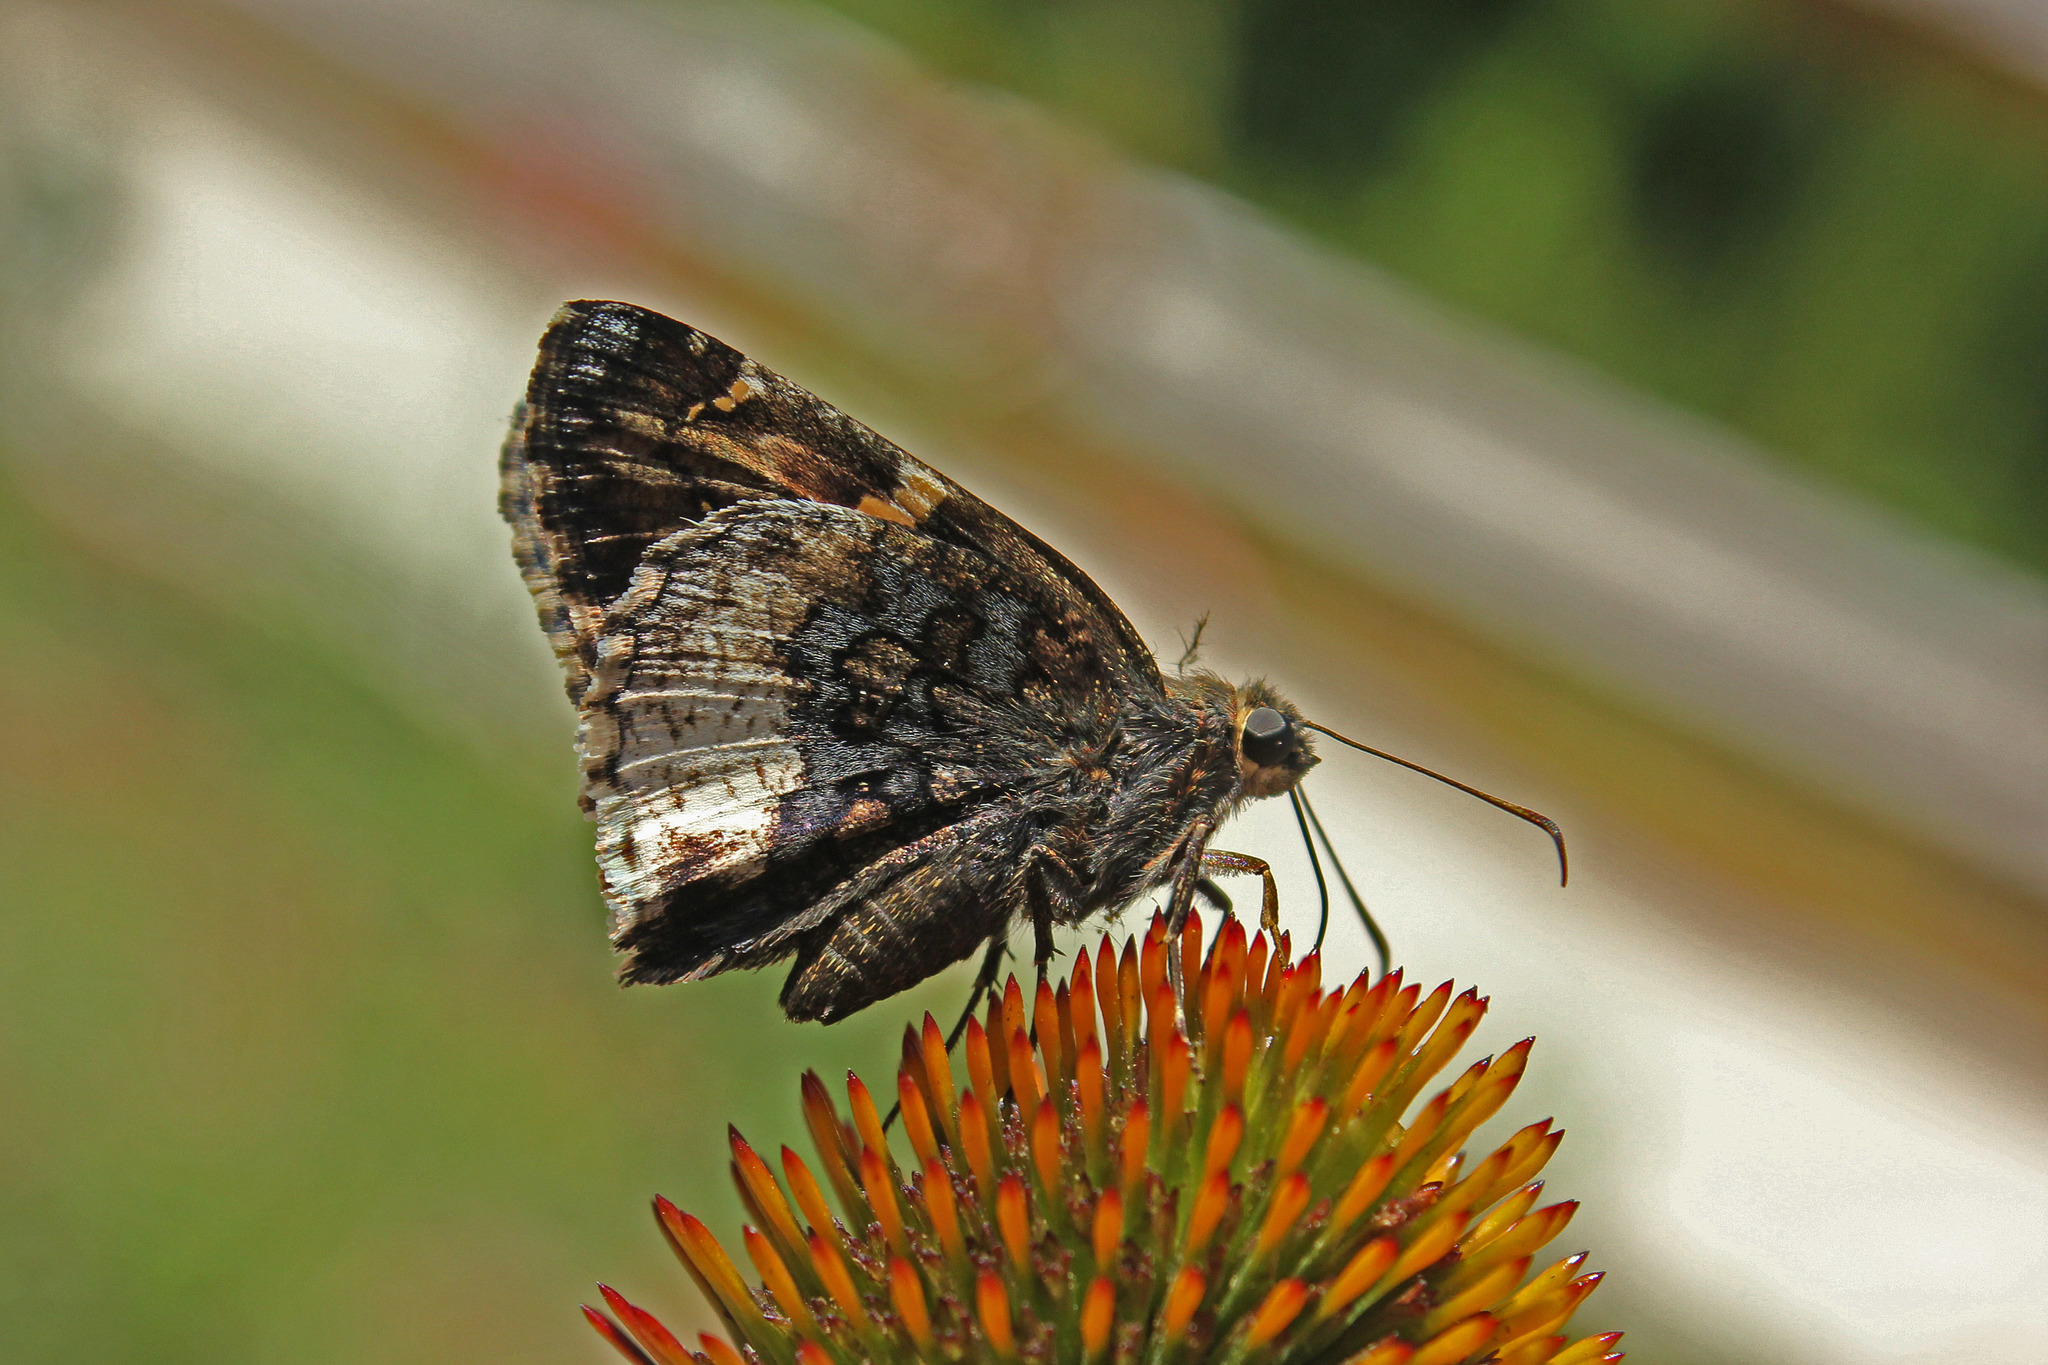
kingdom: Animalia
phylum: Arthropoda
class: Insecta
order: Lepidoptera
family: Hesperiidae
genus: Thorybes
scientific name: Thorybes lyciades
